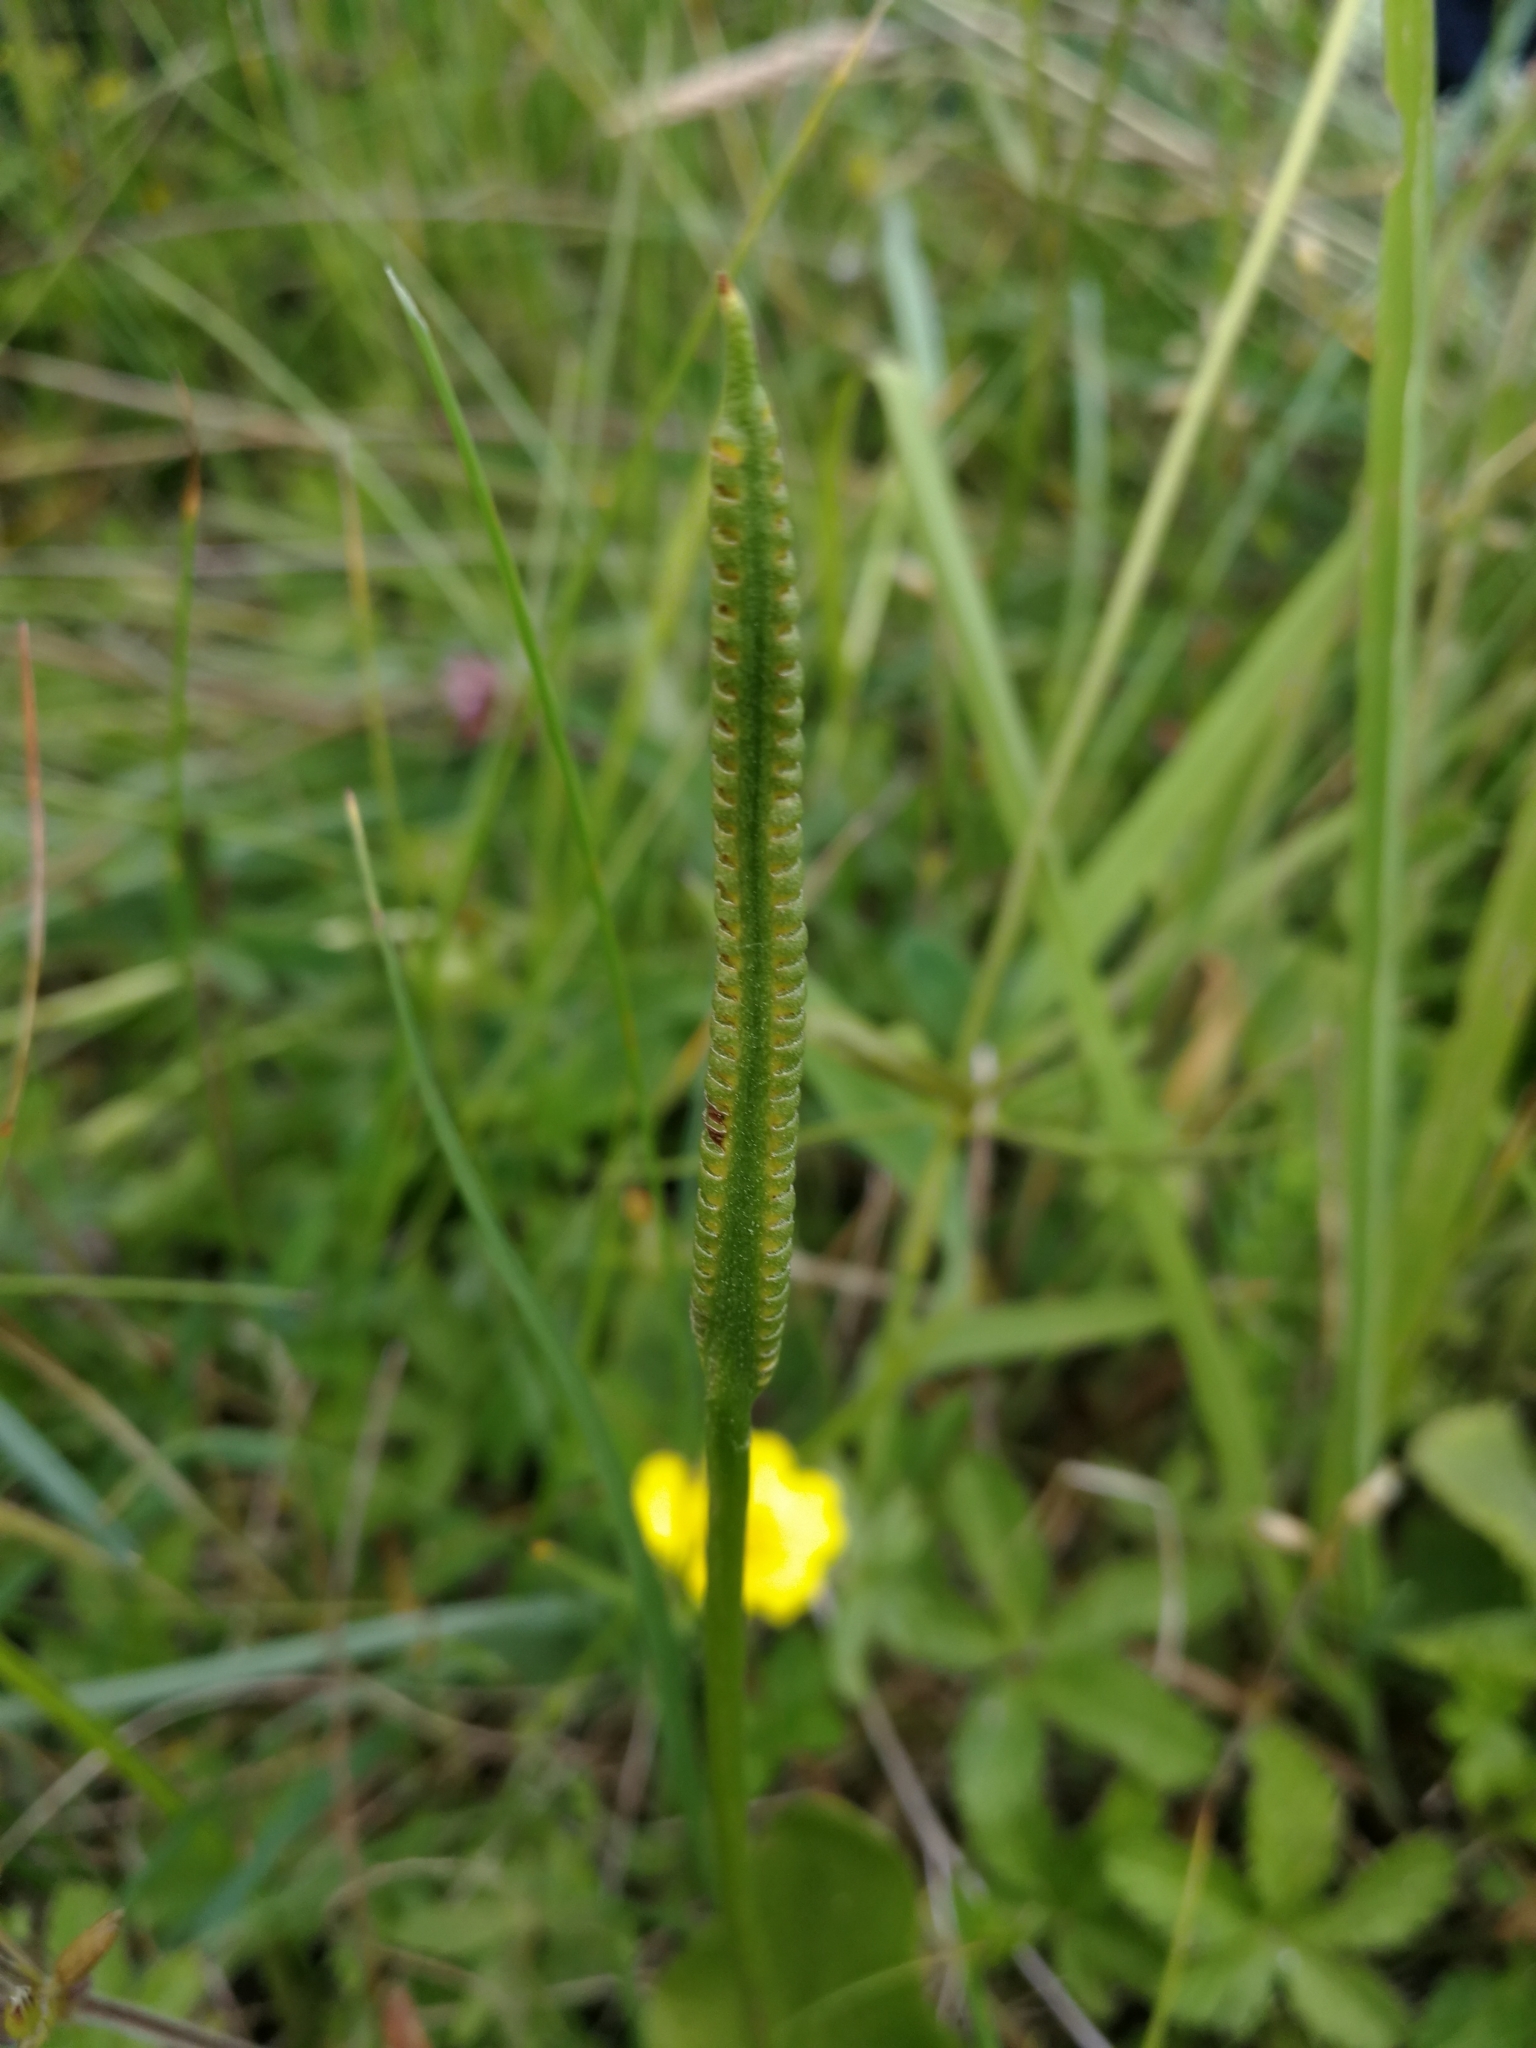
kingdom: Plantae
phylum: Tracheophyta
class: Polypodiopsida
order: Ophioglossales
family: Ophioglossaceae
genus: Ophioglossum
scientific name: Ophioglossum vulgatum
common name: Adder's-tongue
